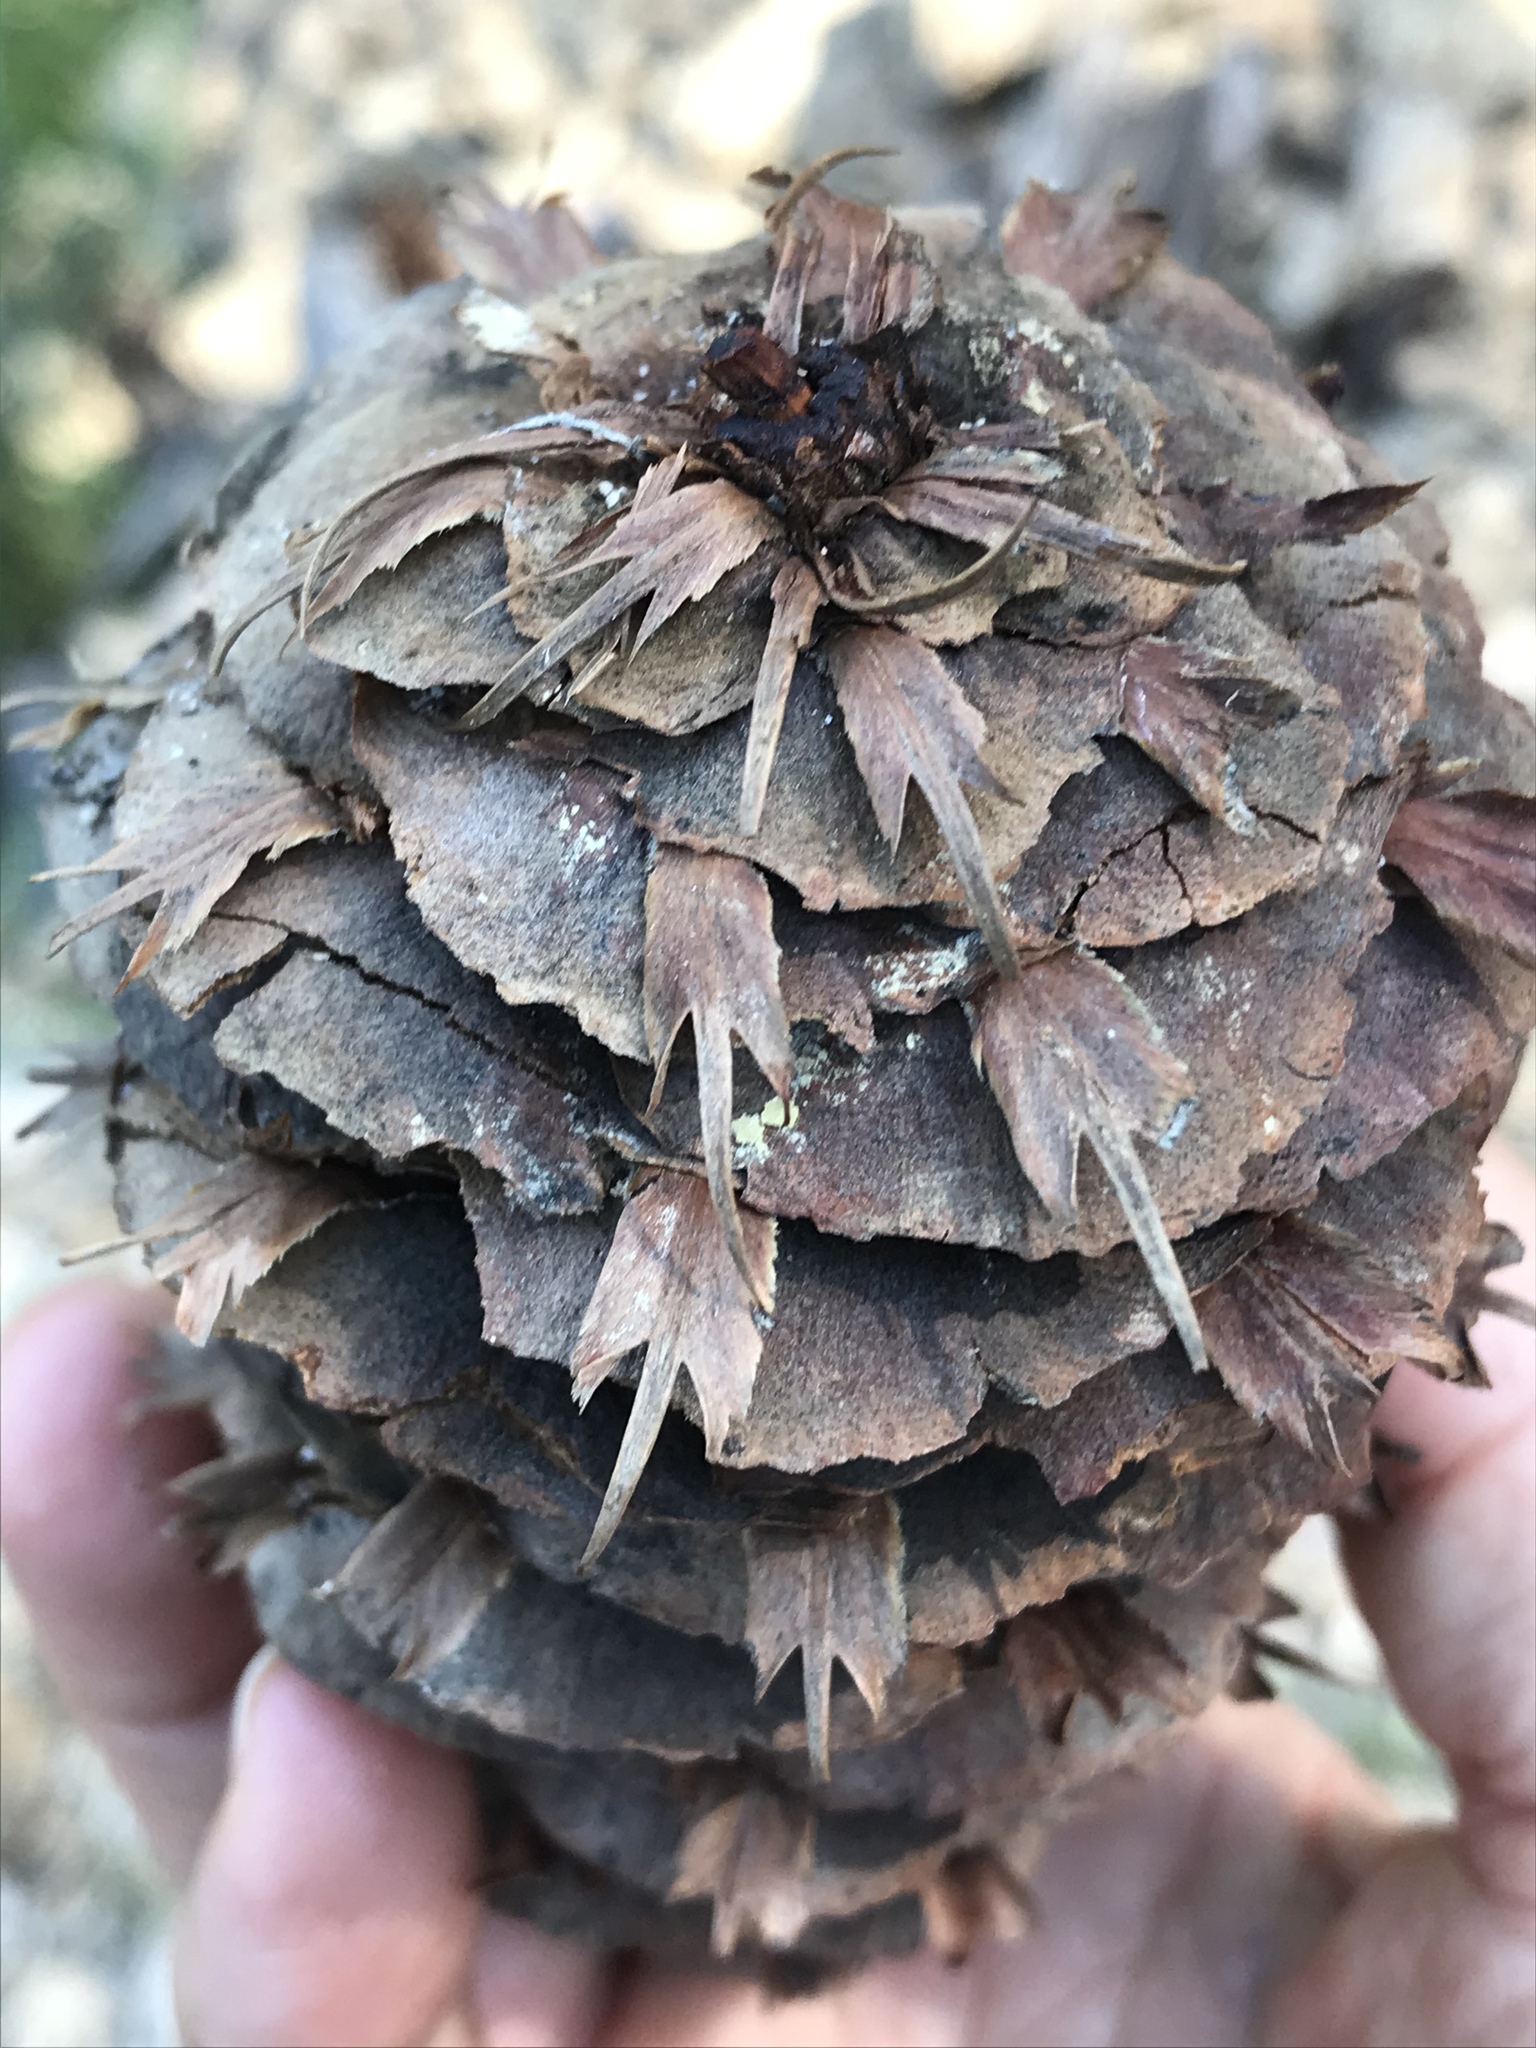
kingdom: Plantae
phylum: Tracheophyta
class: Pinopsida
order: Pinales
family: Pinaceae
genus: Pseudotsuga
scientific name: Pseudotsuga macrocarpa
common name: Big-cone douglas-fir
